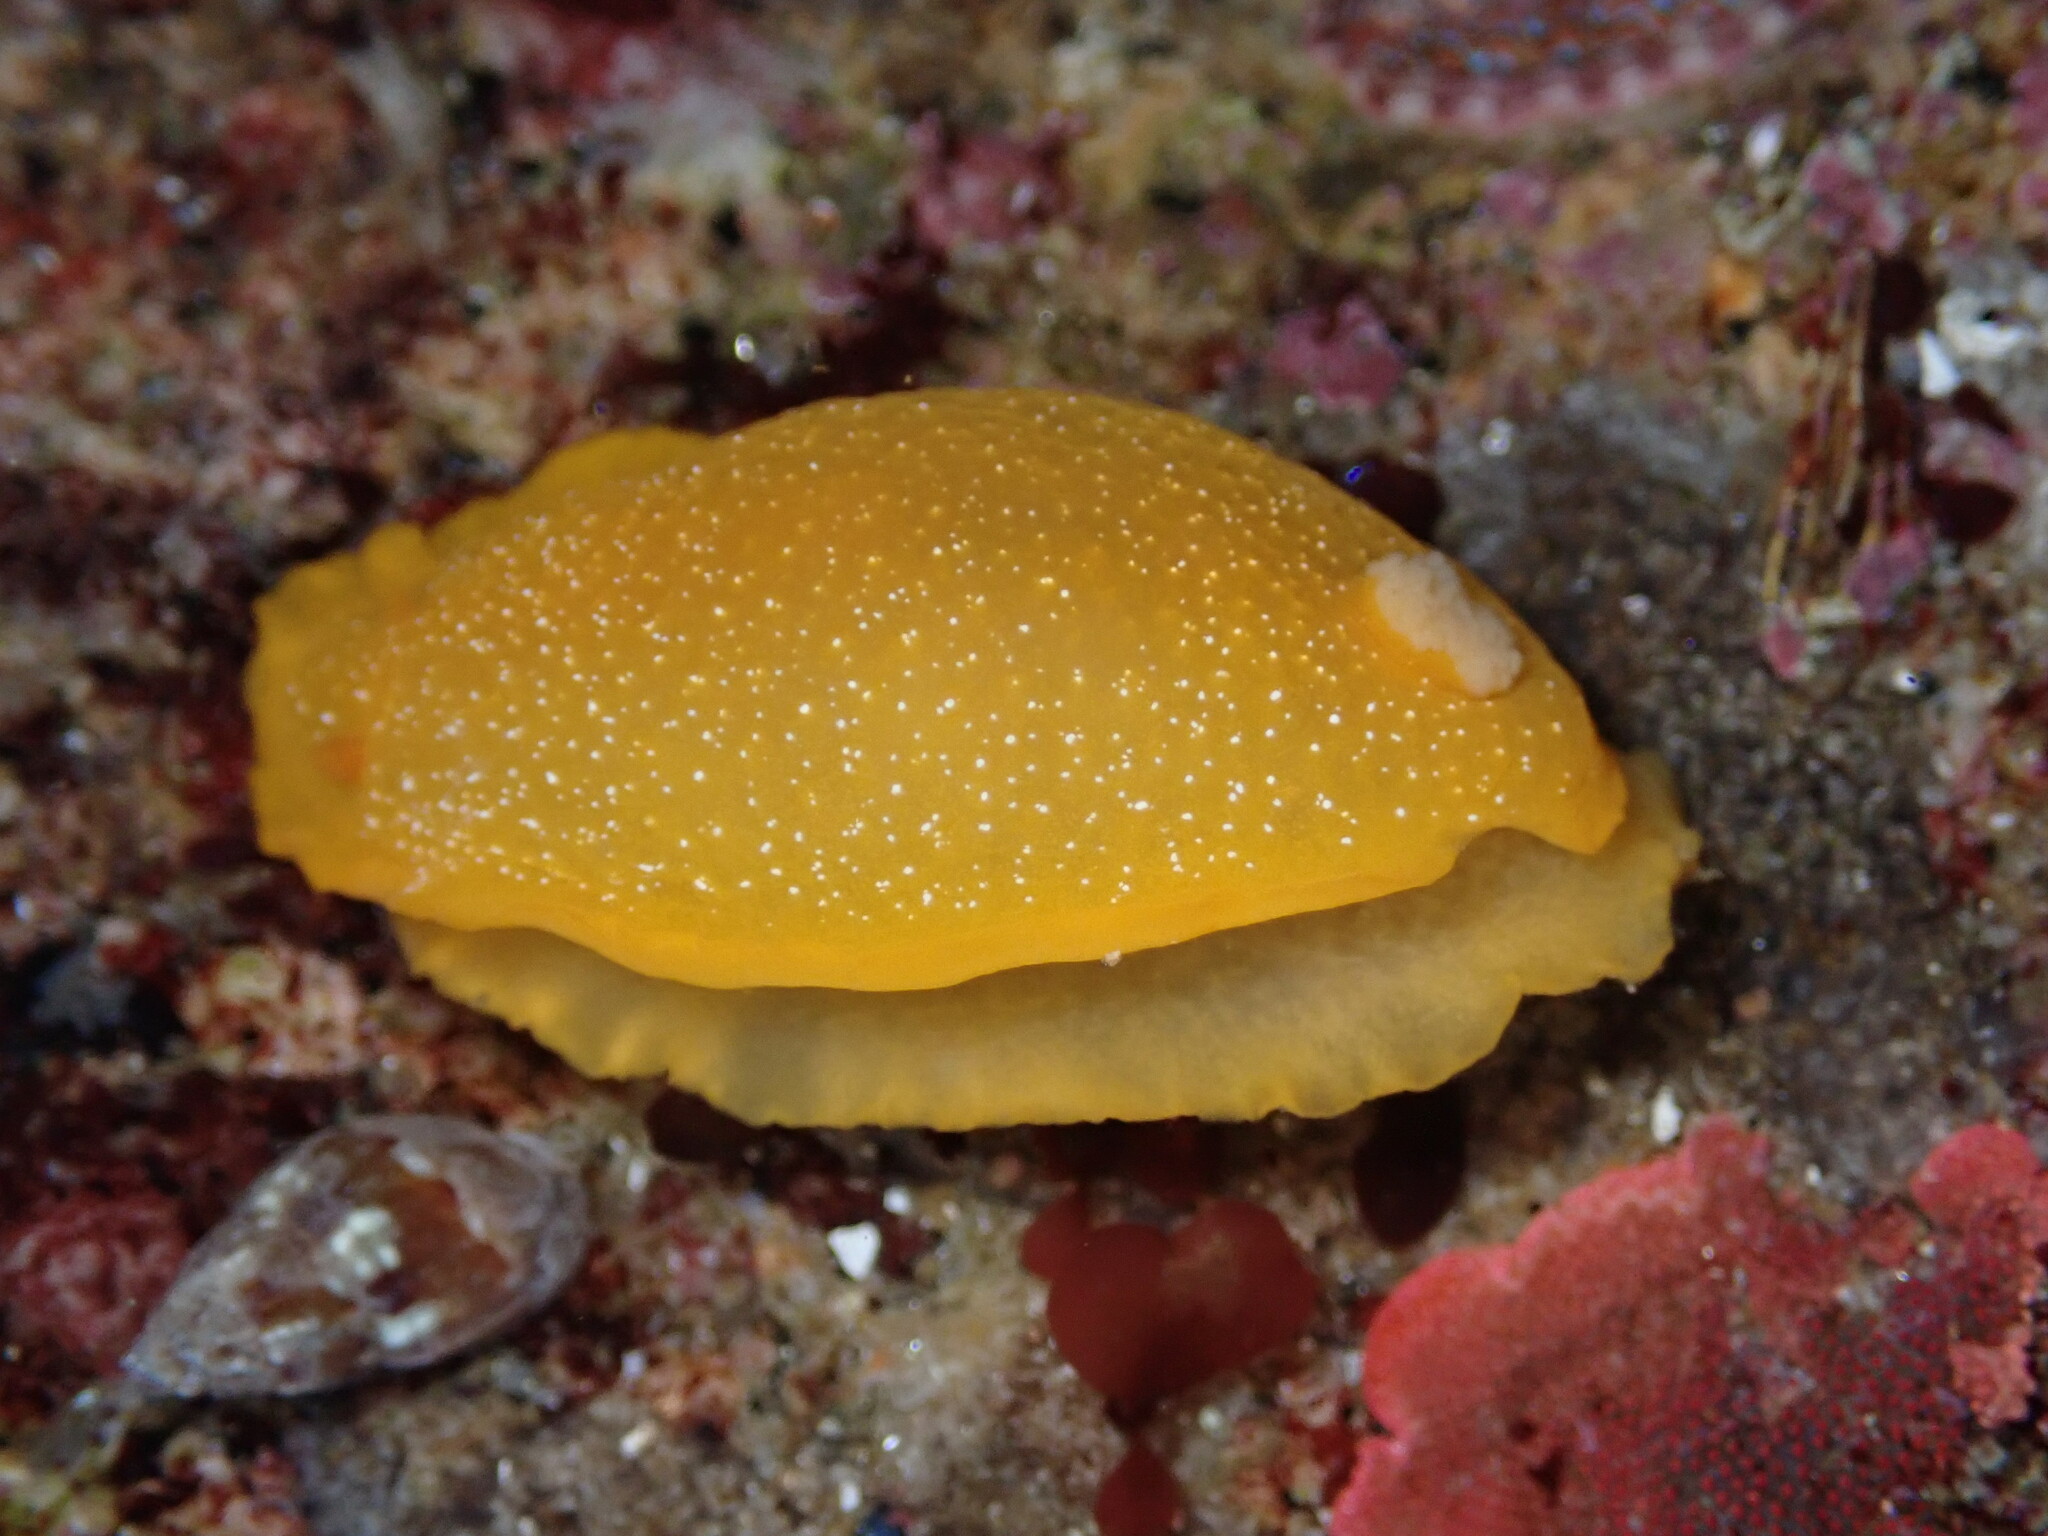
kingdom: Animalia
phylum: Mollusca
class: Gastropoda
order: Nudibranchia
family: Dendrodorididae
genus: Doriopsilla
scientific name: Doriopsilla fulva
